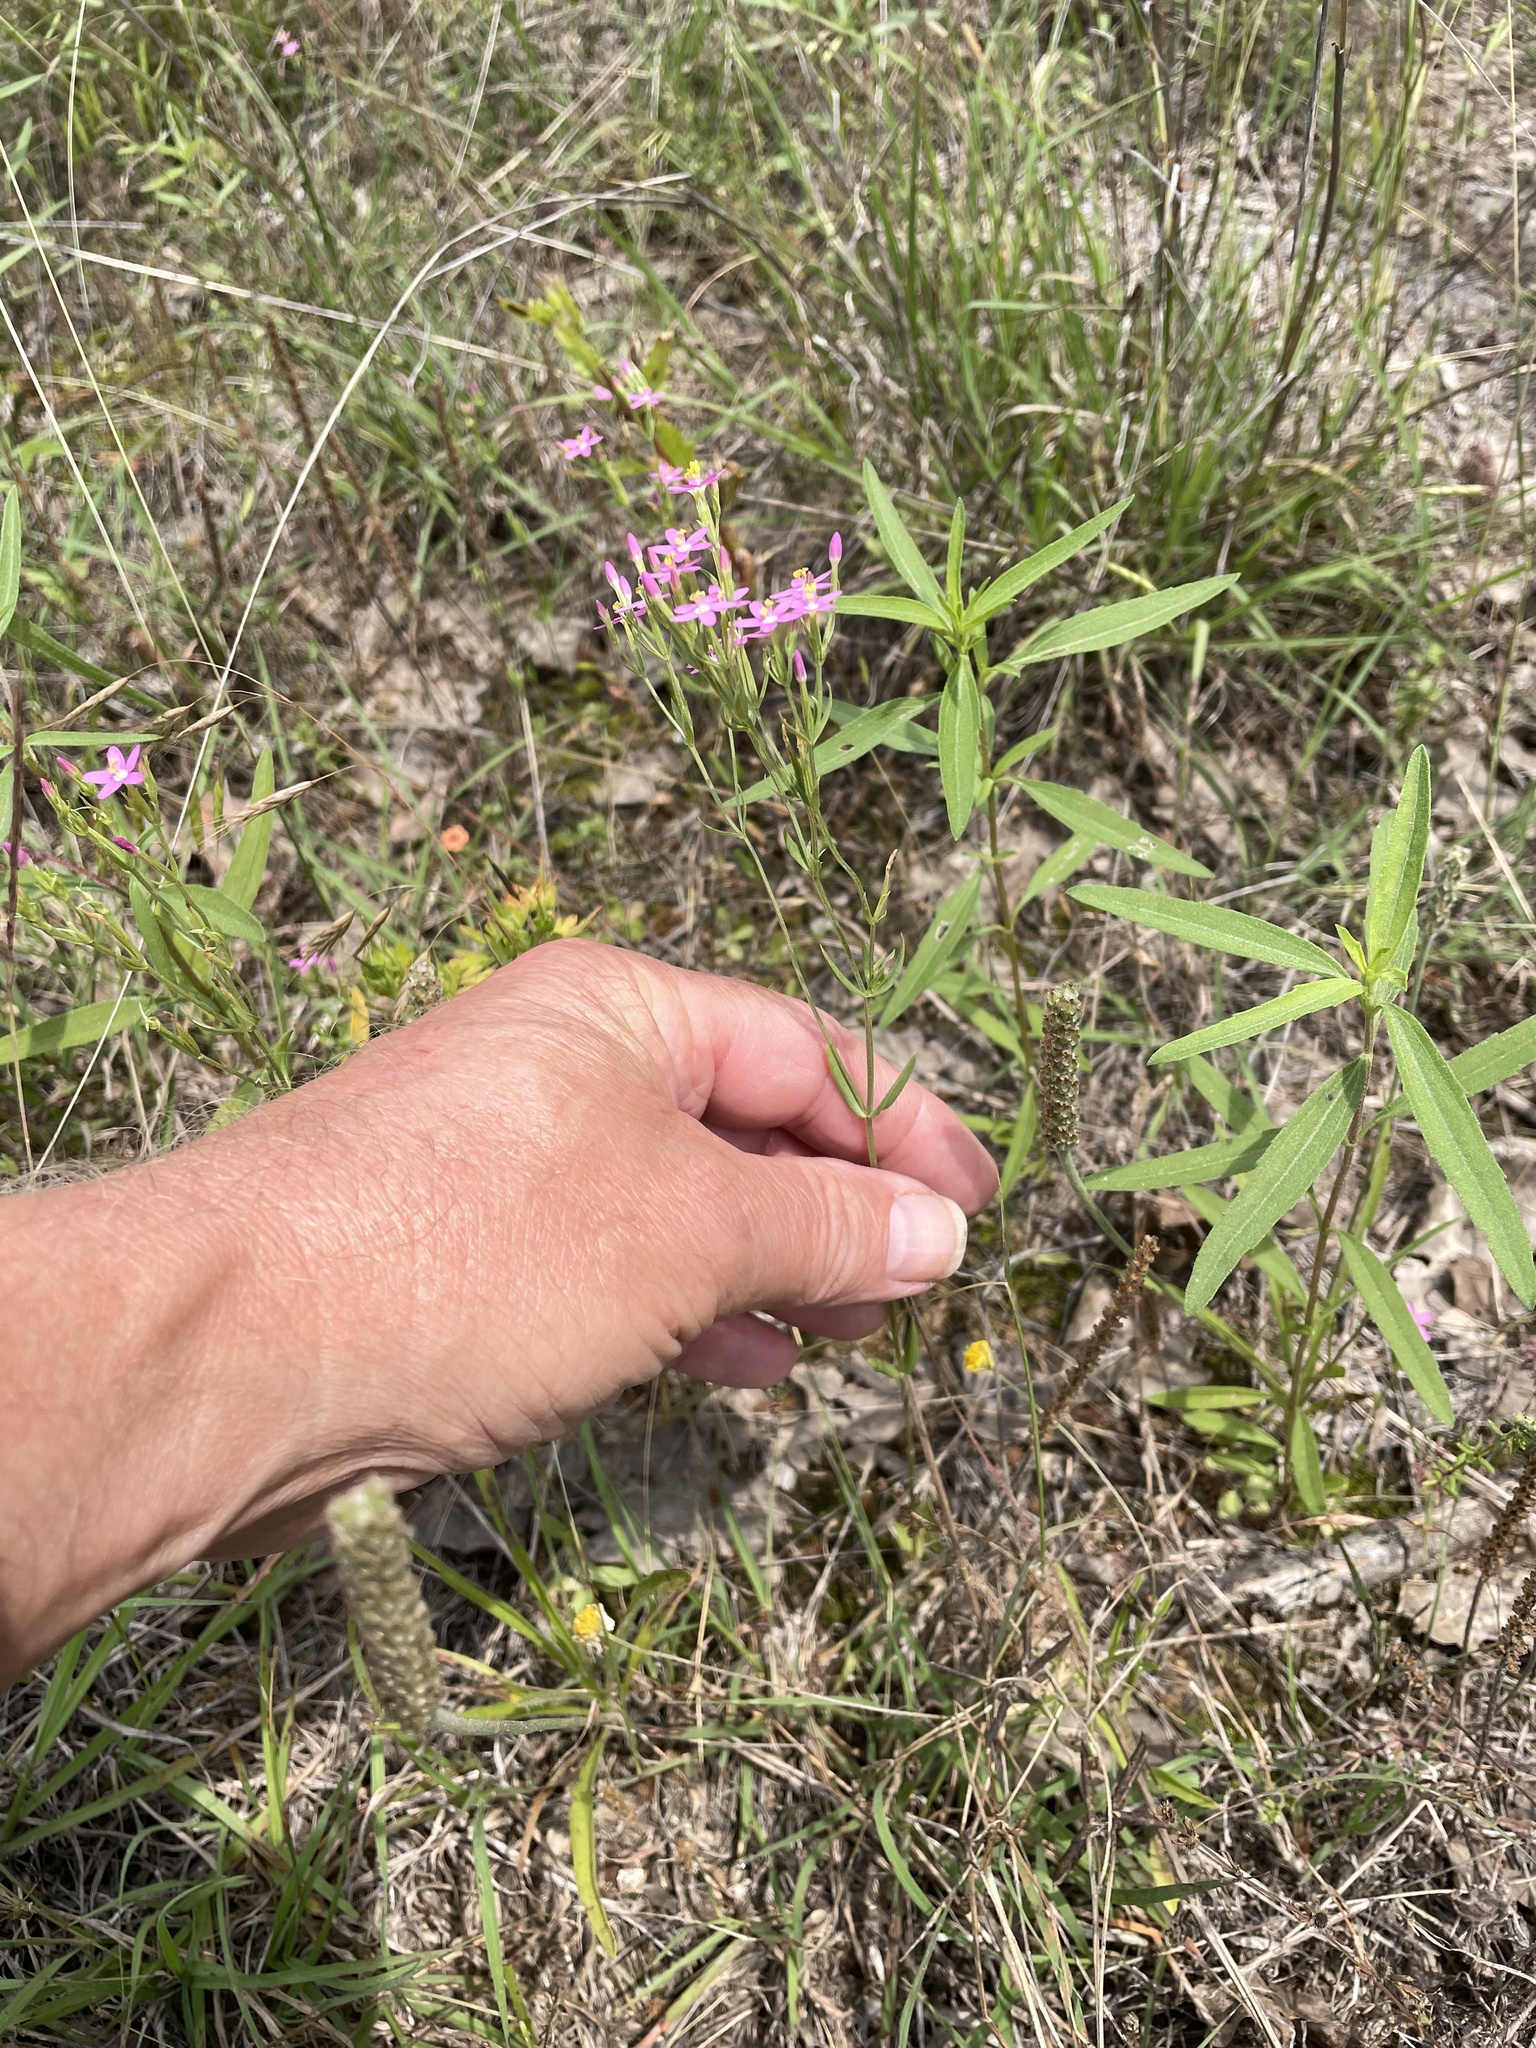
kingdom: Plantae
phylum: Tracheophyta
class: Magnoliopsida
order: Gentianales
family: Gentianaceae
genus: Centaurium
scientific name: Centaurium tenuiflorum
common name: Slender centaury
